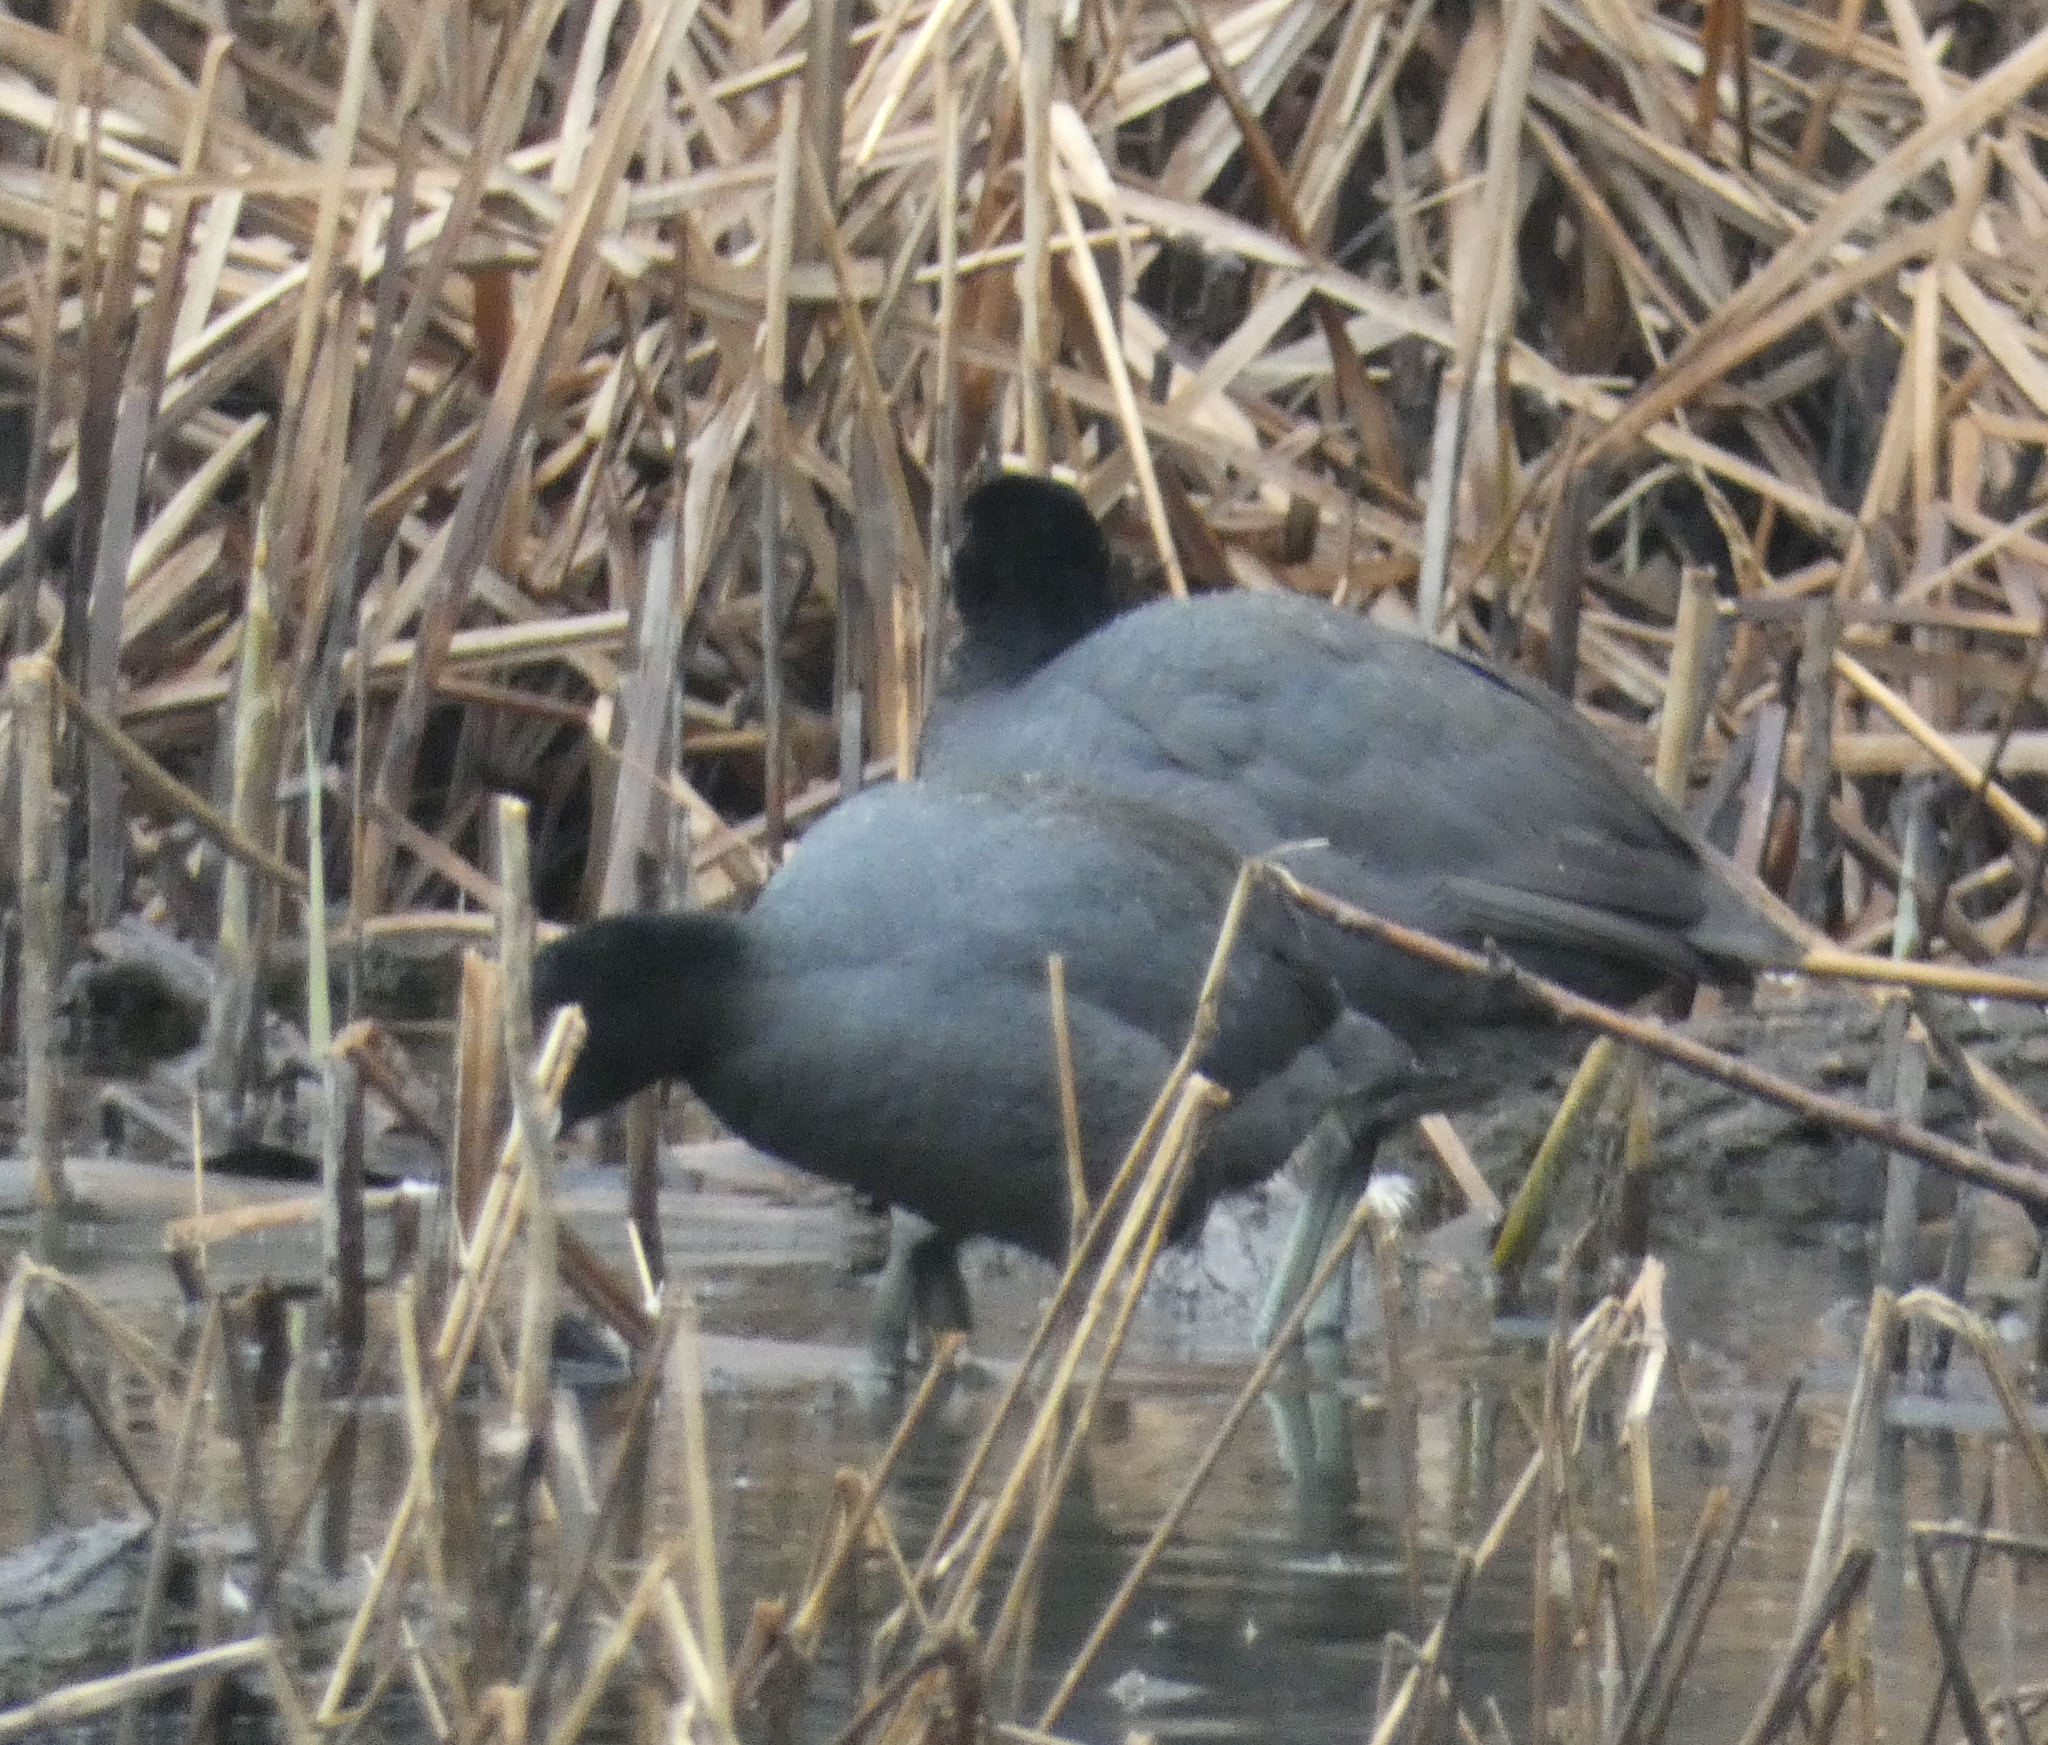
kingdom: Animalia
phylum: Chordata
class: Aves
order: Gruiformes
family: Rallidae
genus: Fulica
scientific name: Fulica americana
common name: American coot
